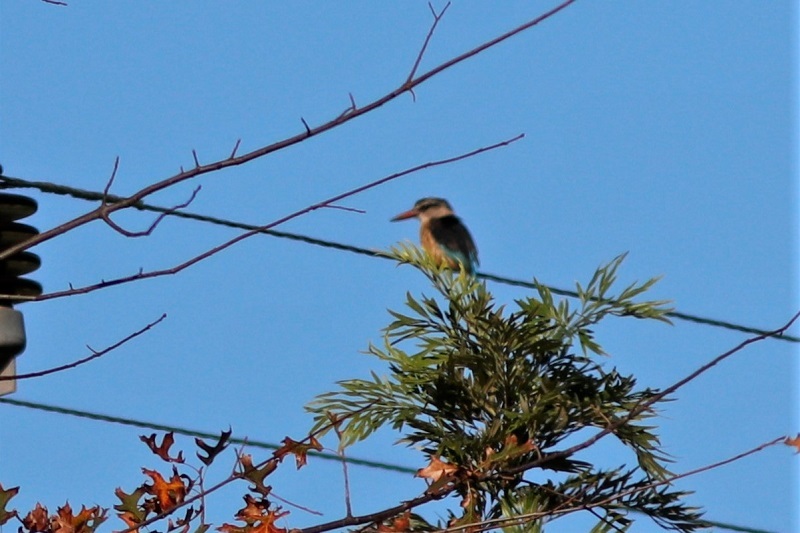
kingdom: Animalia
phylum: Chordata
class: Aves
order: Coraciiformes
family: Alcedinidae
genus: Halcyon
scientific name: Halcyon albiventris
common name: Brown-hooded kingfisher
